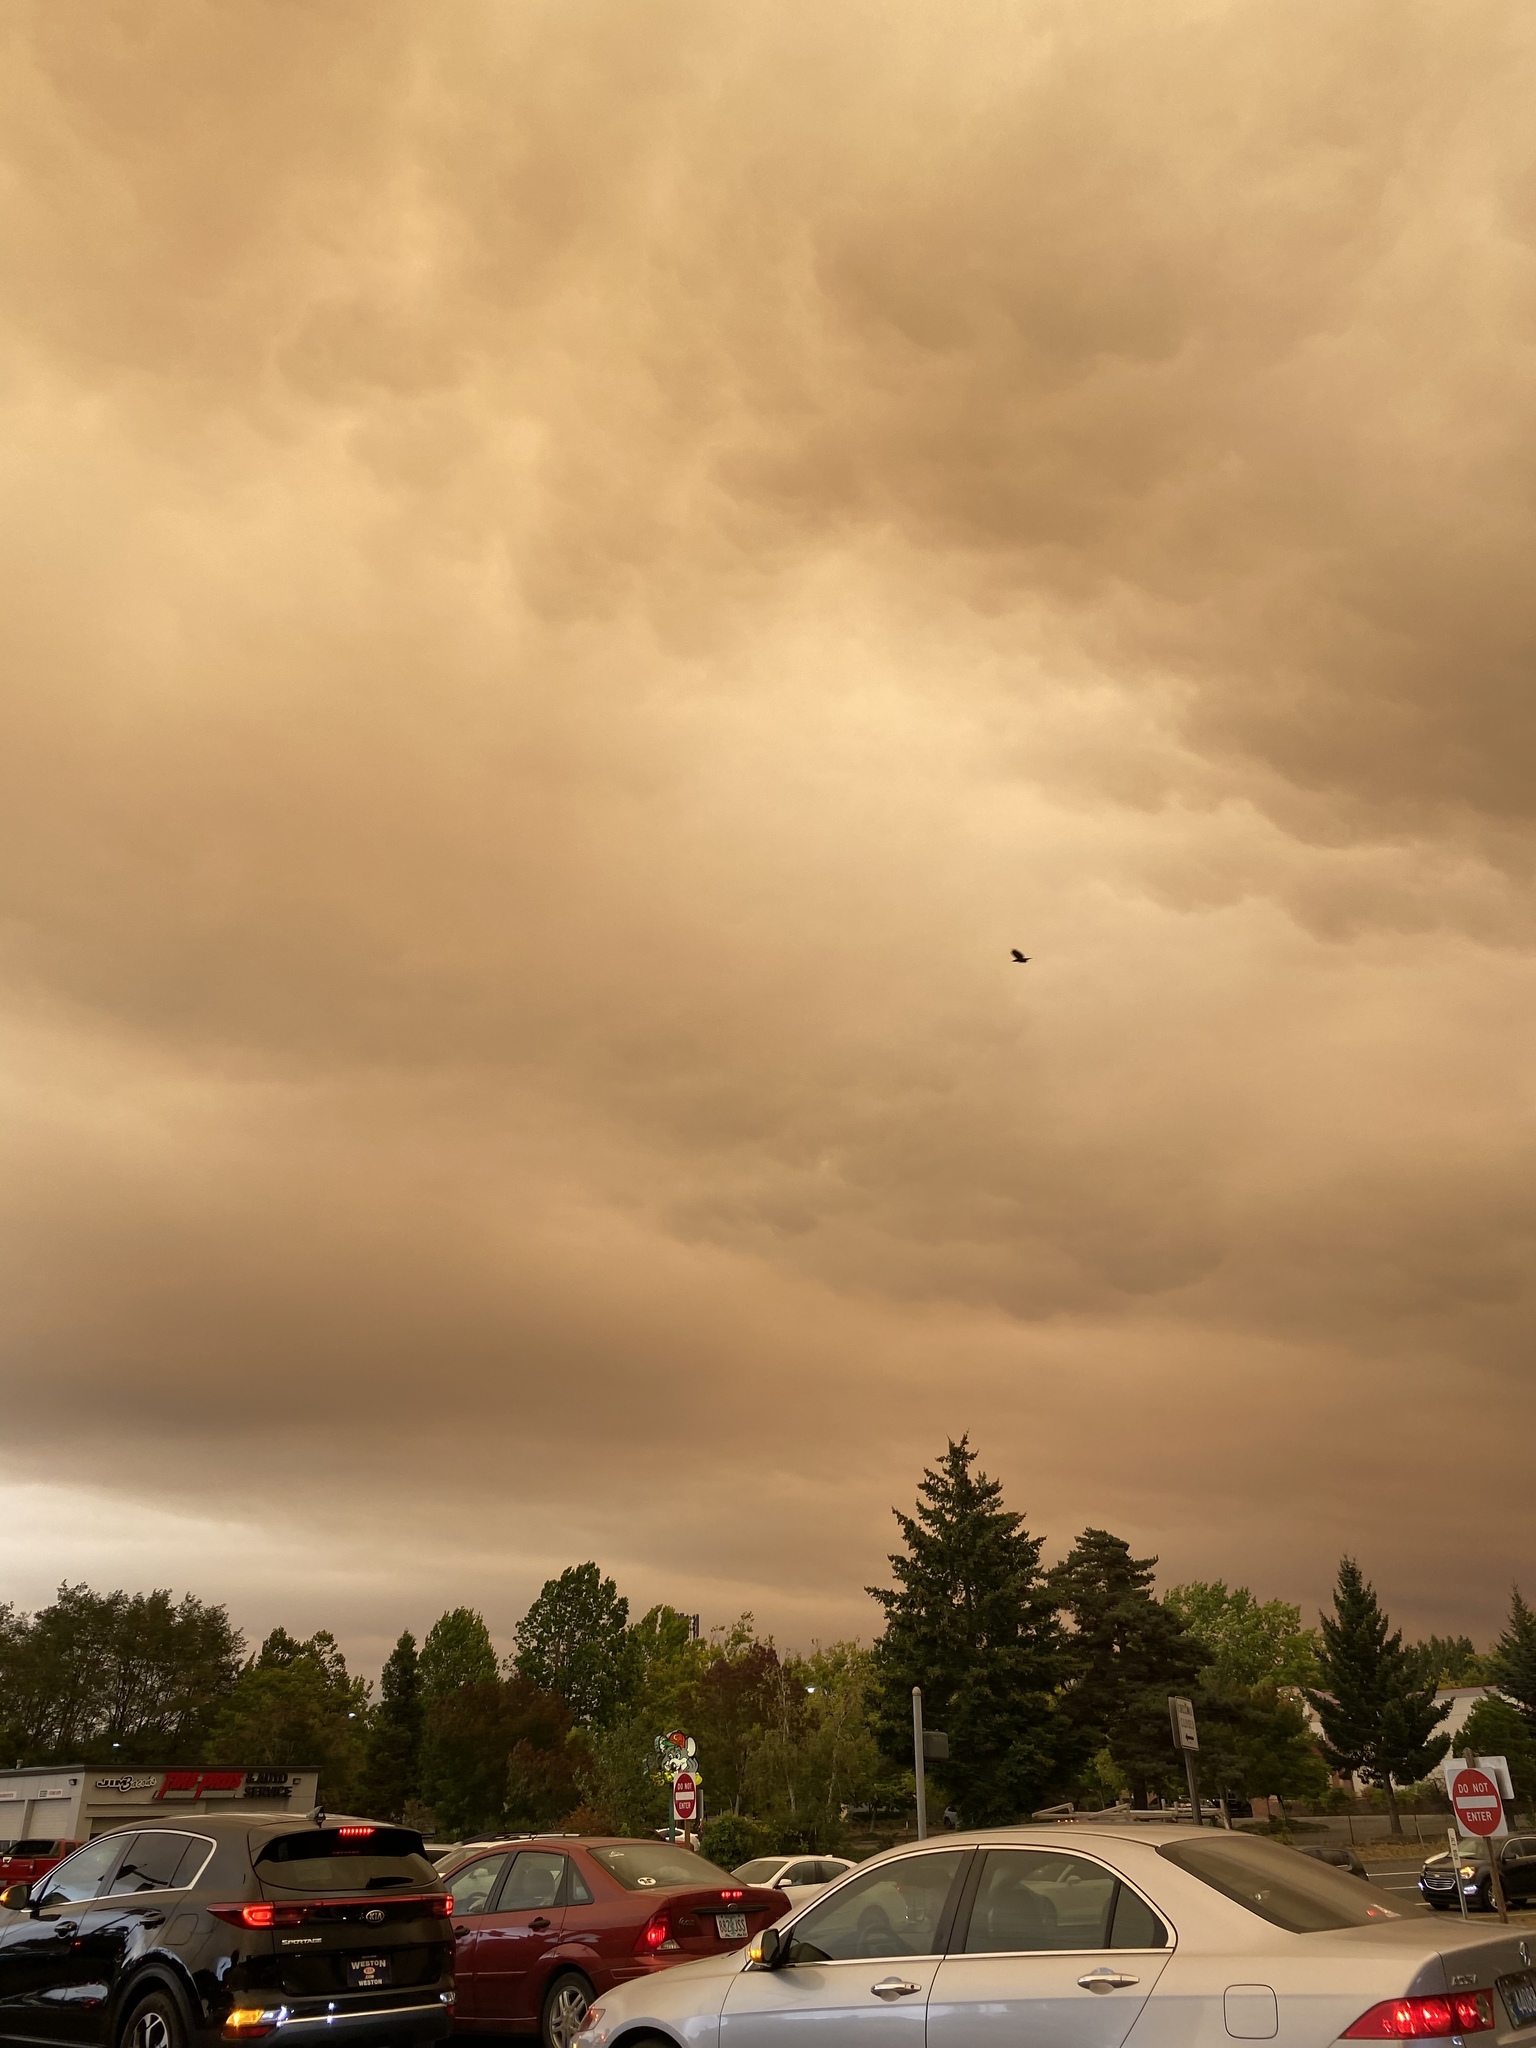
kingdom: Animalia
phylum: Chordata
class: Aves
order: Passeriformes
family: Corvidae
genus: Corvus
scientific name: Corvus brachyrhynchos
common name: American crow
